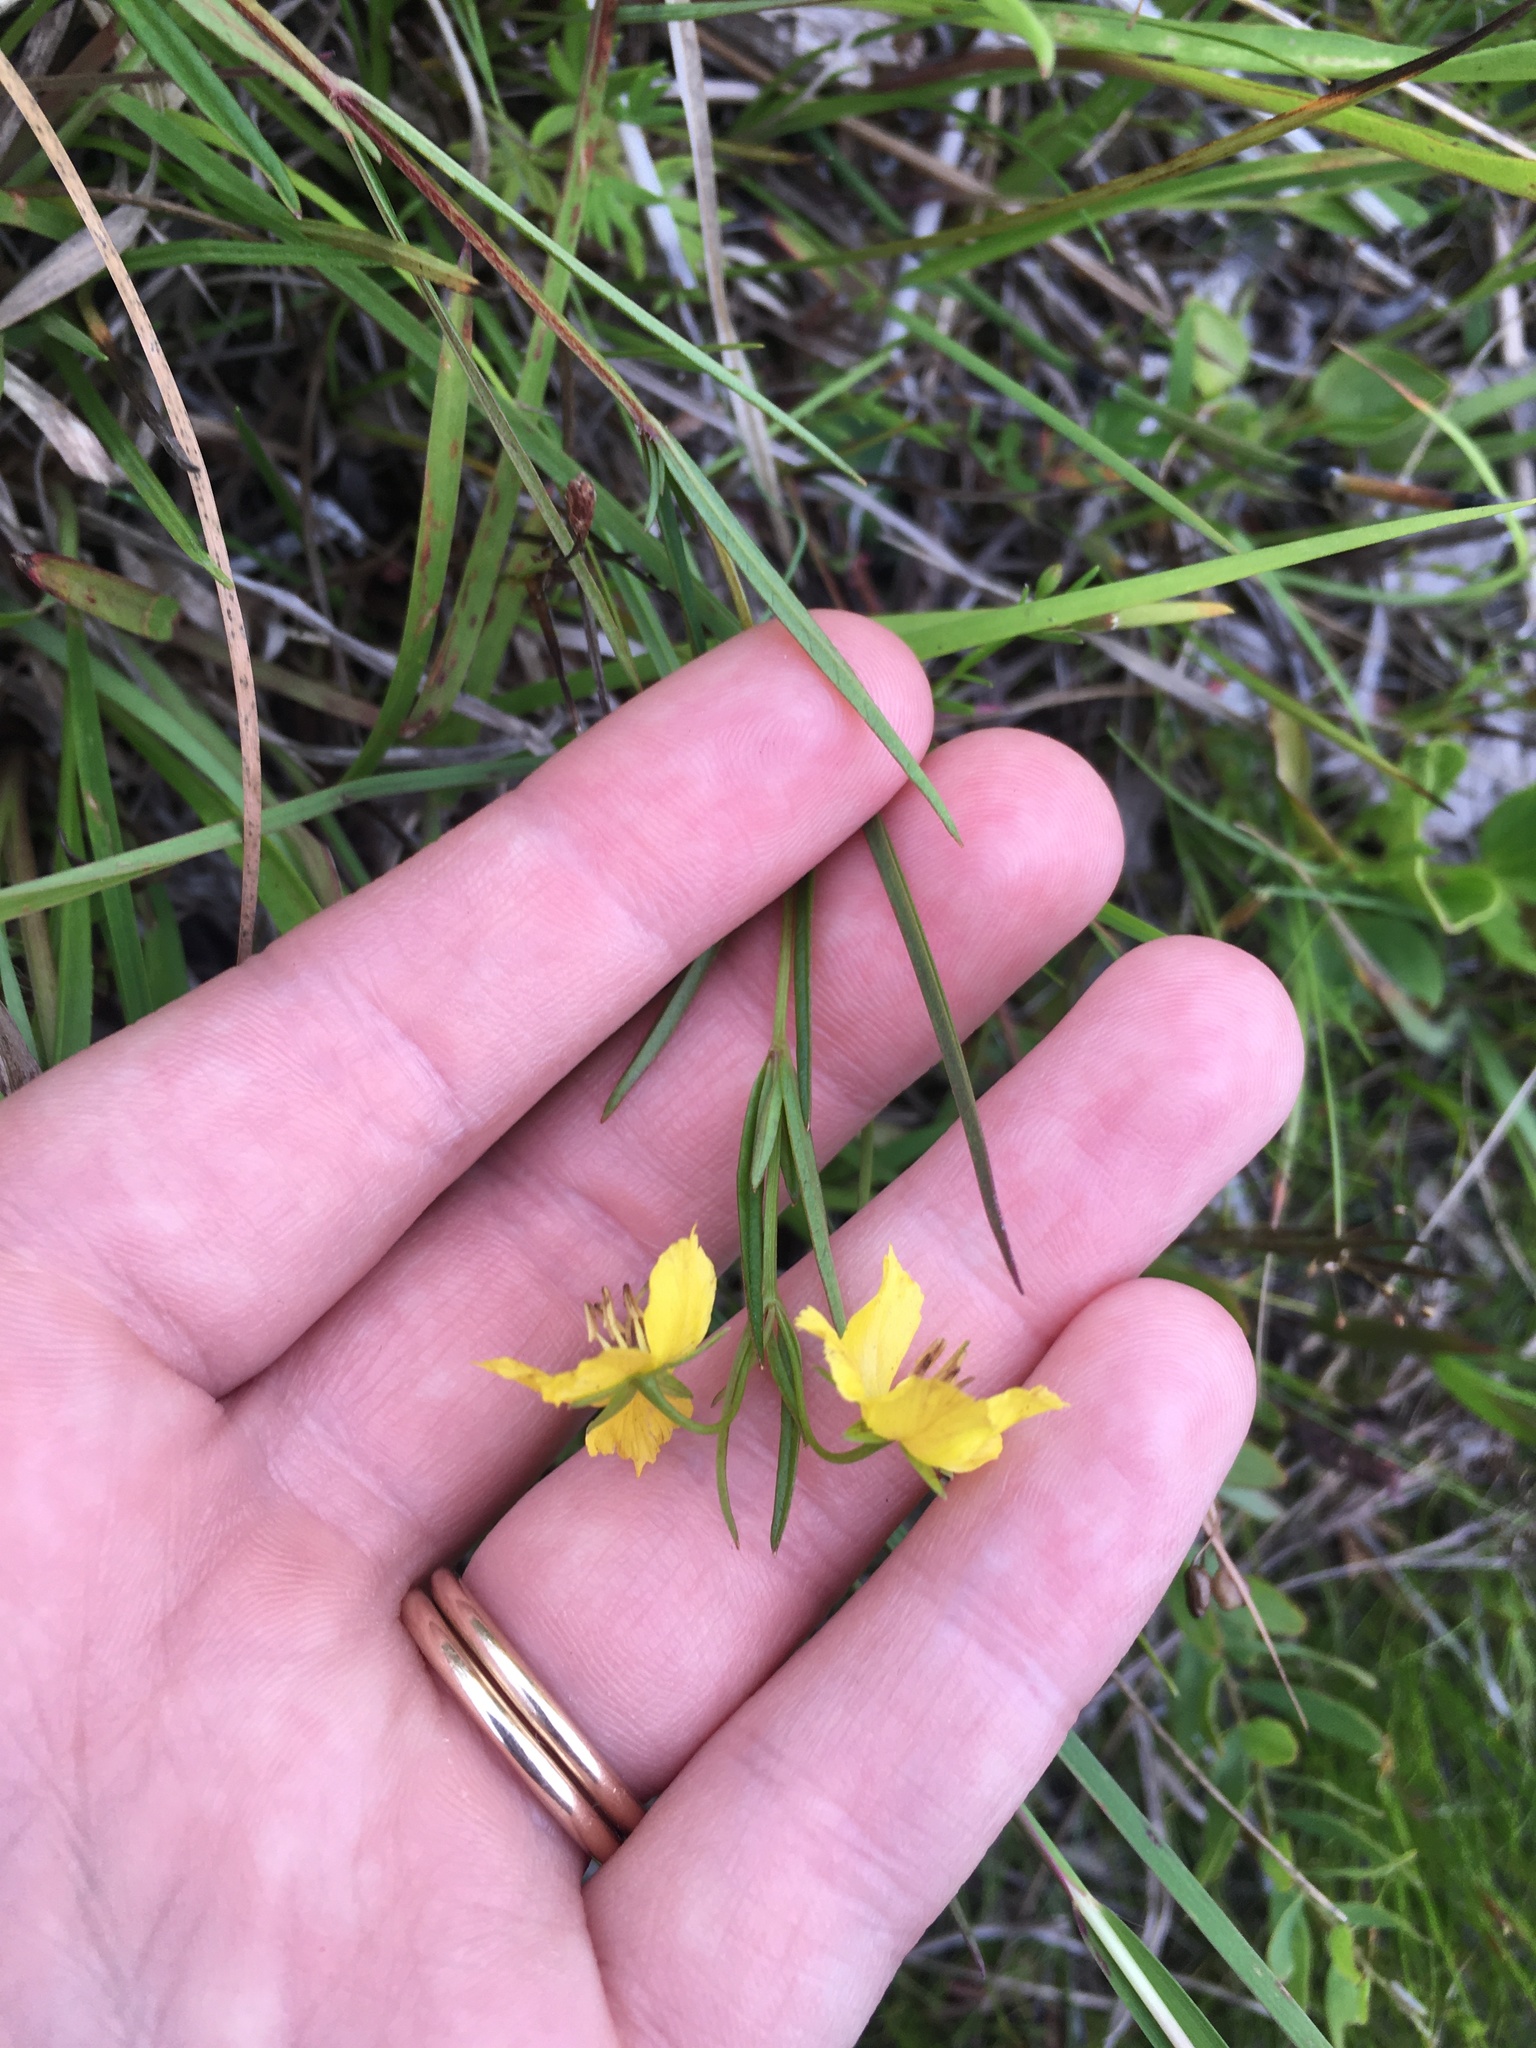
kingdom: Plantae
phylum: Tracheophyta
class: Magnoliopsida
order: Ericales
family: Primulaceae
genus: Lysimachia
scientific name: Lysimachia quadriflora
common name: Four-flowered loosestrife
